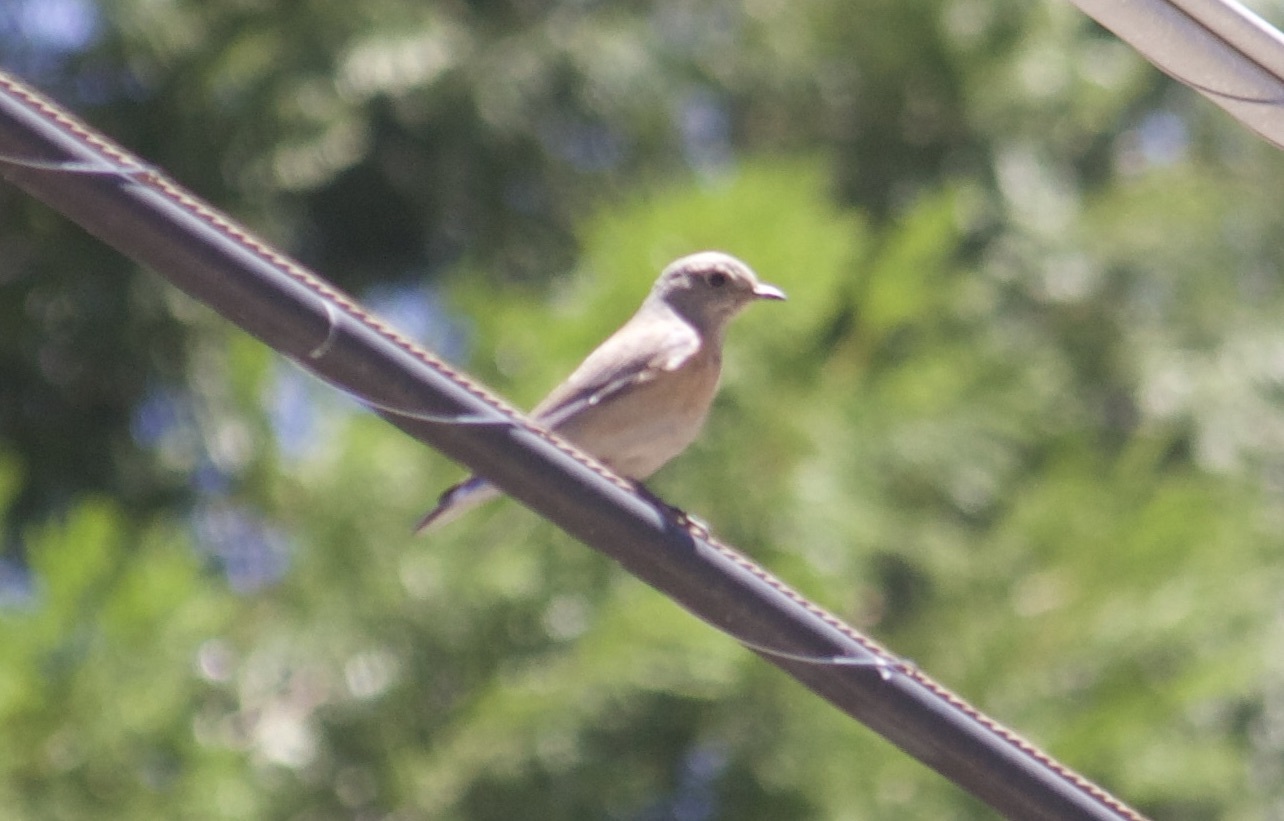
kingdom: Animalia
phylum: Chordata
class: Aves
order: Passeriformes
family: Turdidae
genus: Sialia
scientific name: Sialia mexicana
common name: Western bluebird
